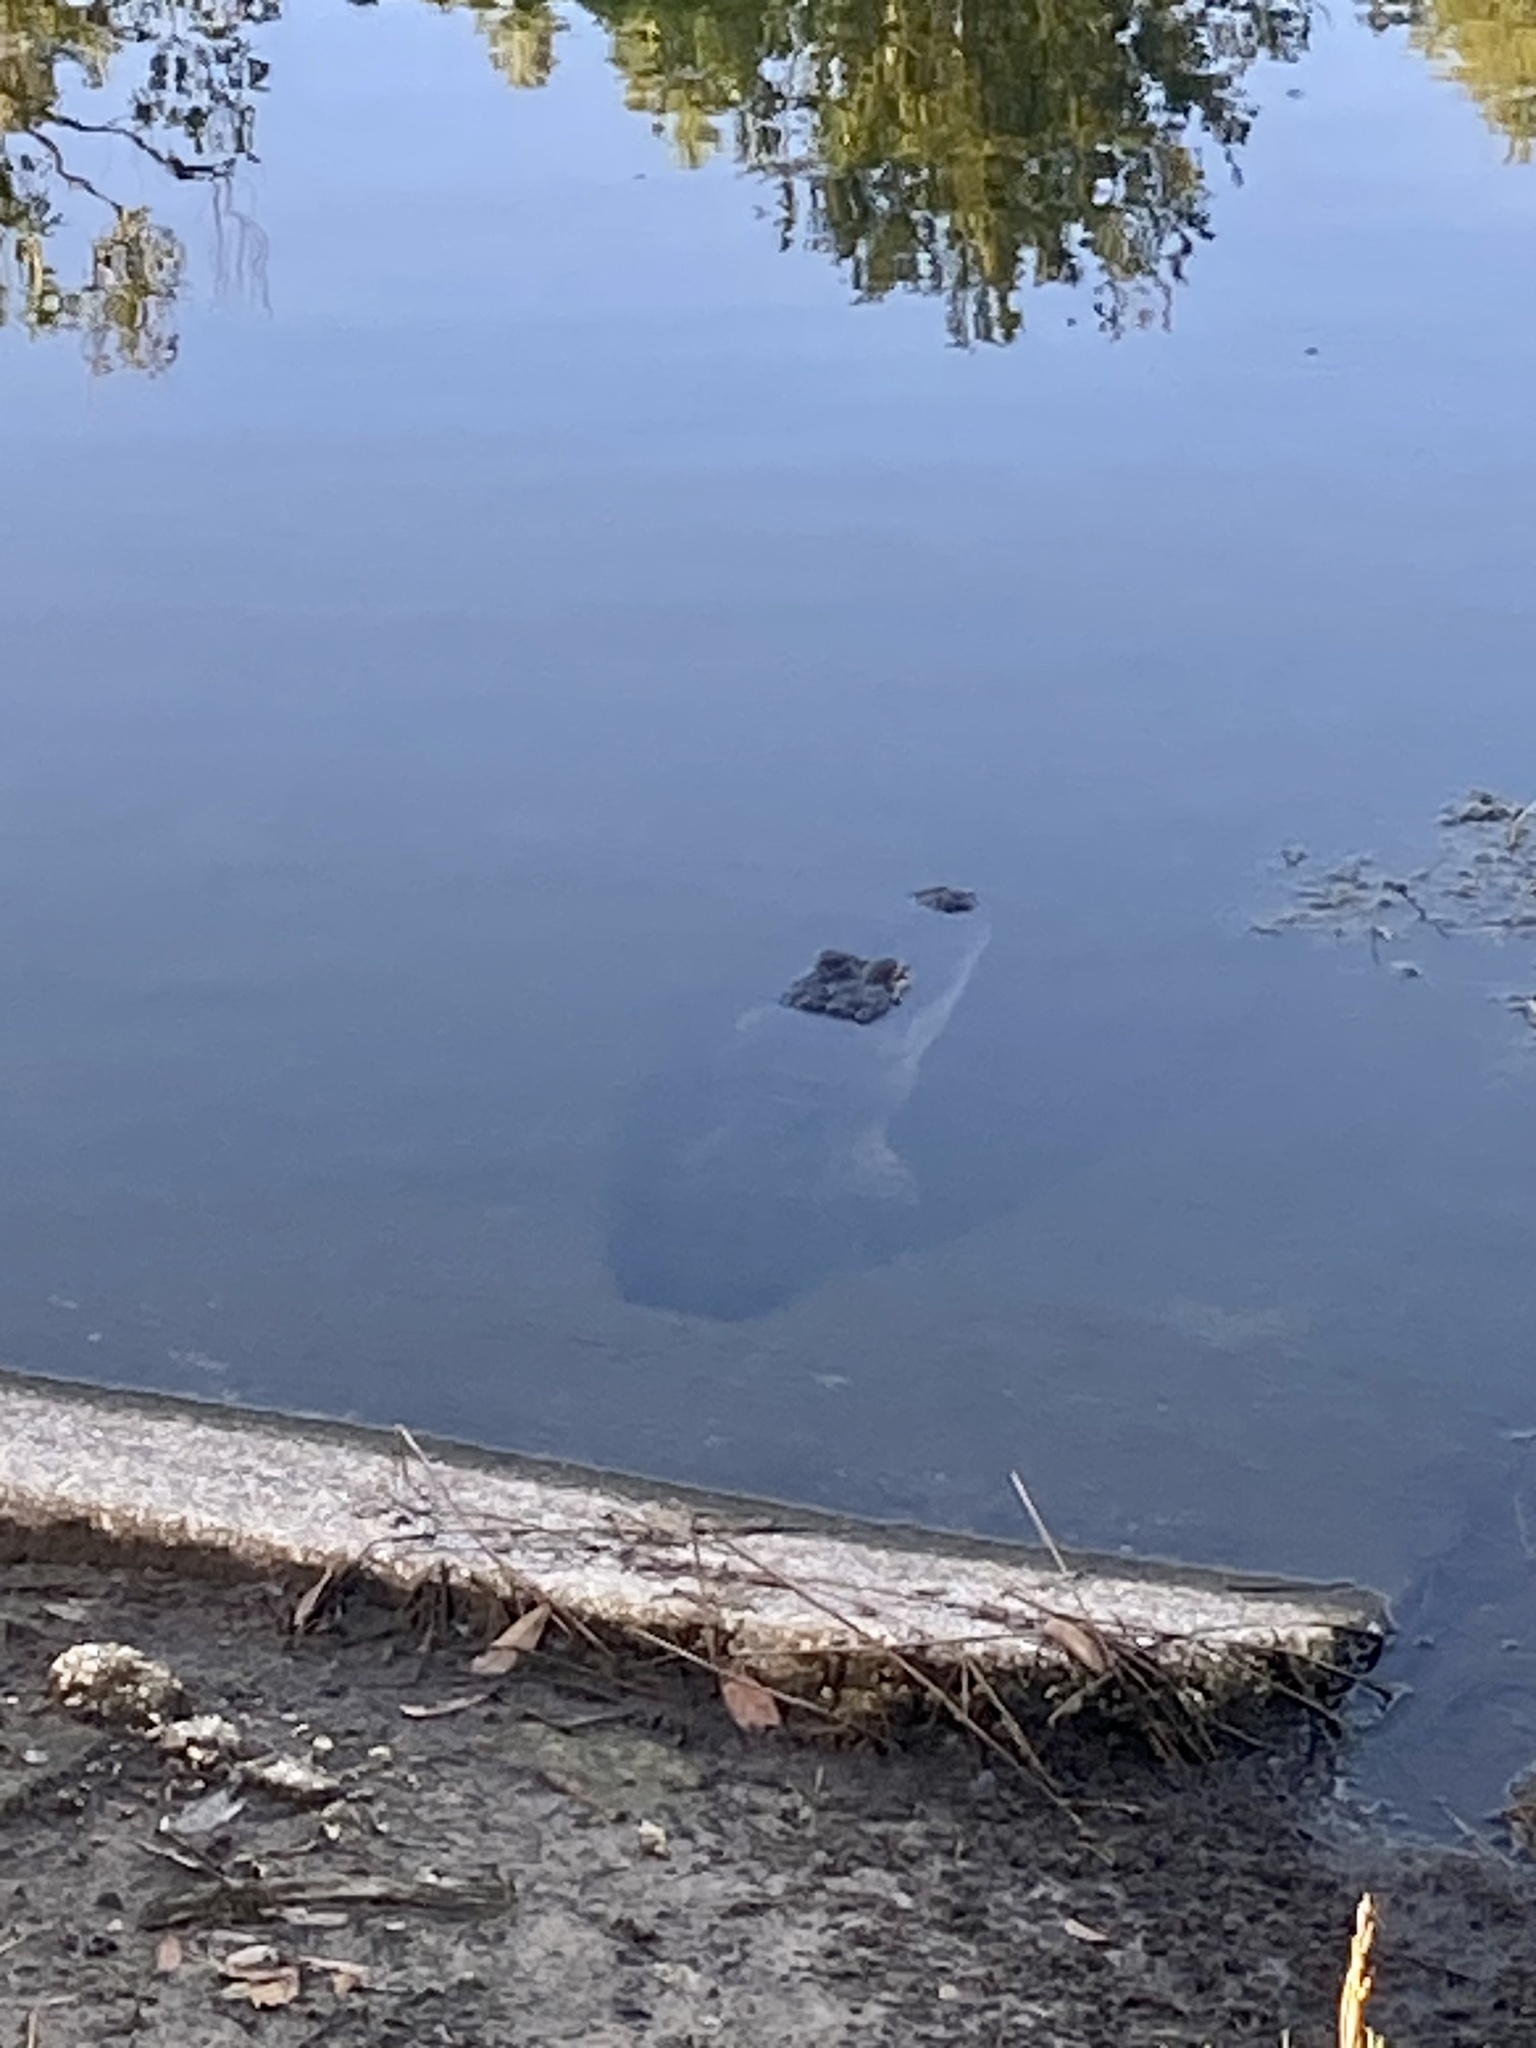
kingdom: Animalia
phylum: Chordata
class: Crocodylia
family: Alligatoridae
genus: Alligator
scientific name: Alligator mississippiensis
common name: American alligator
